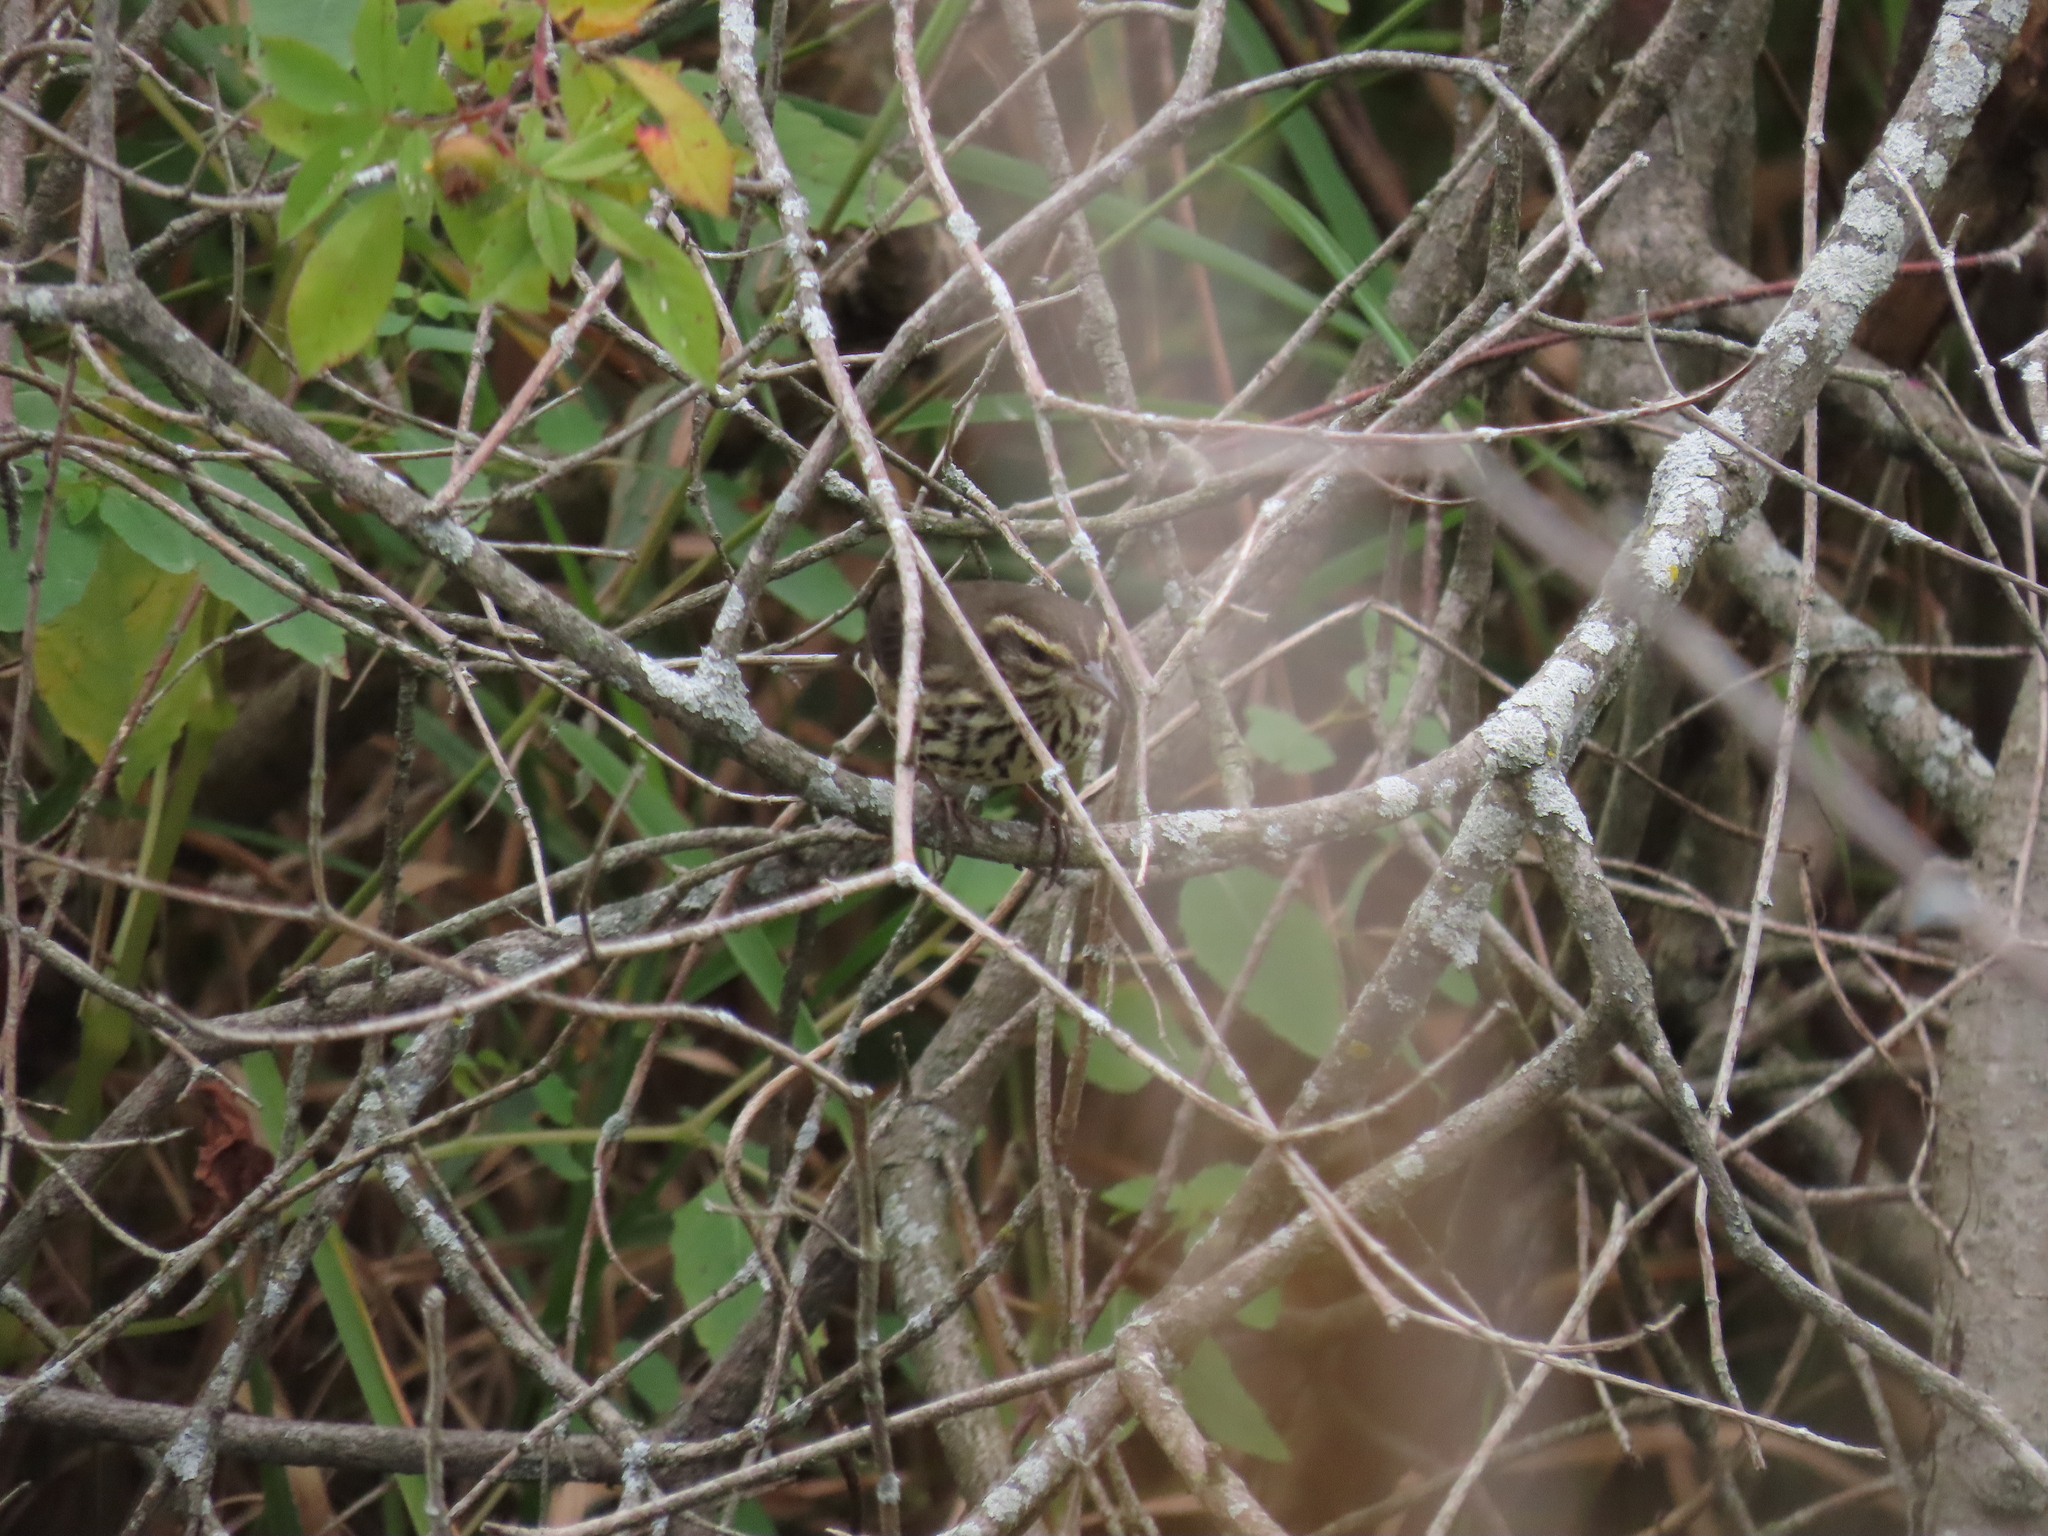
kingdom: Animalia
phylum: Chordata
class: Aves
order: Passeriformes
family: Parulidae
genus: Parkesia
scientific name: Parkesia noveboracensis
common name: Northern waterthrush
